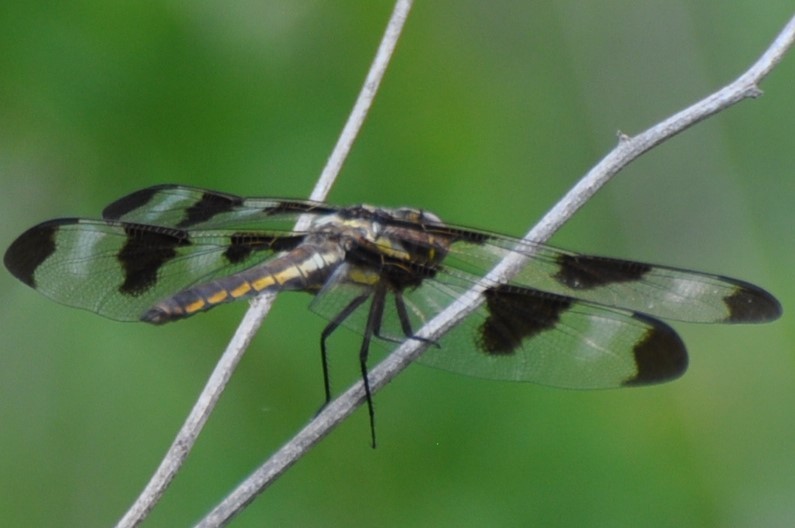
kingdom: Animalia
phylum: Arthropoda
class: Insecta
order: Odonata
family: Libellulidae
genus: Libellula
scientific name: Libellula pulchella
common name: Twelve-spotted skimmer
